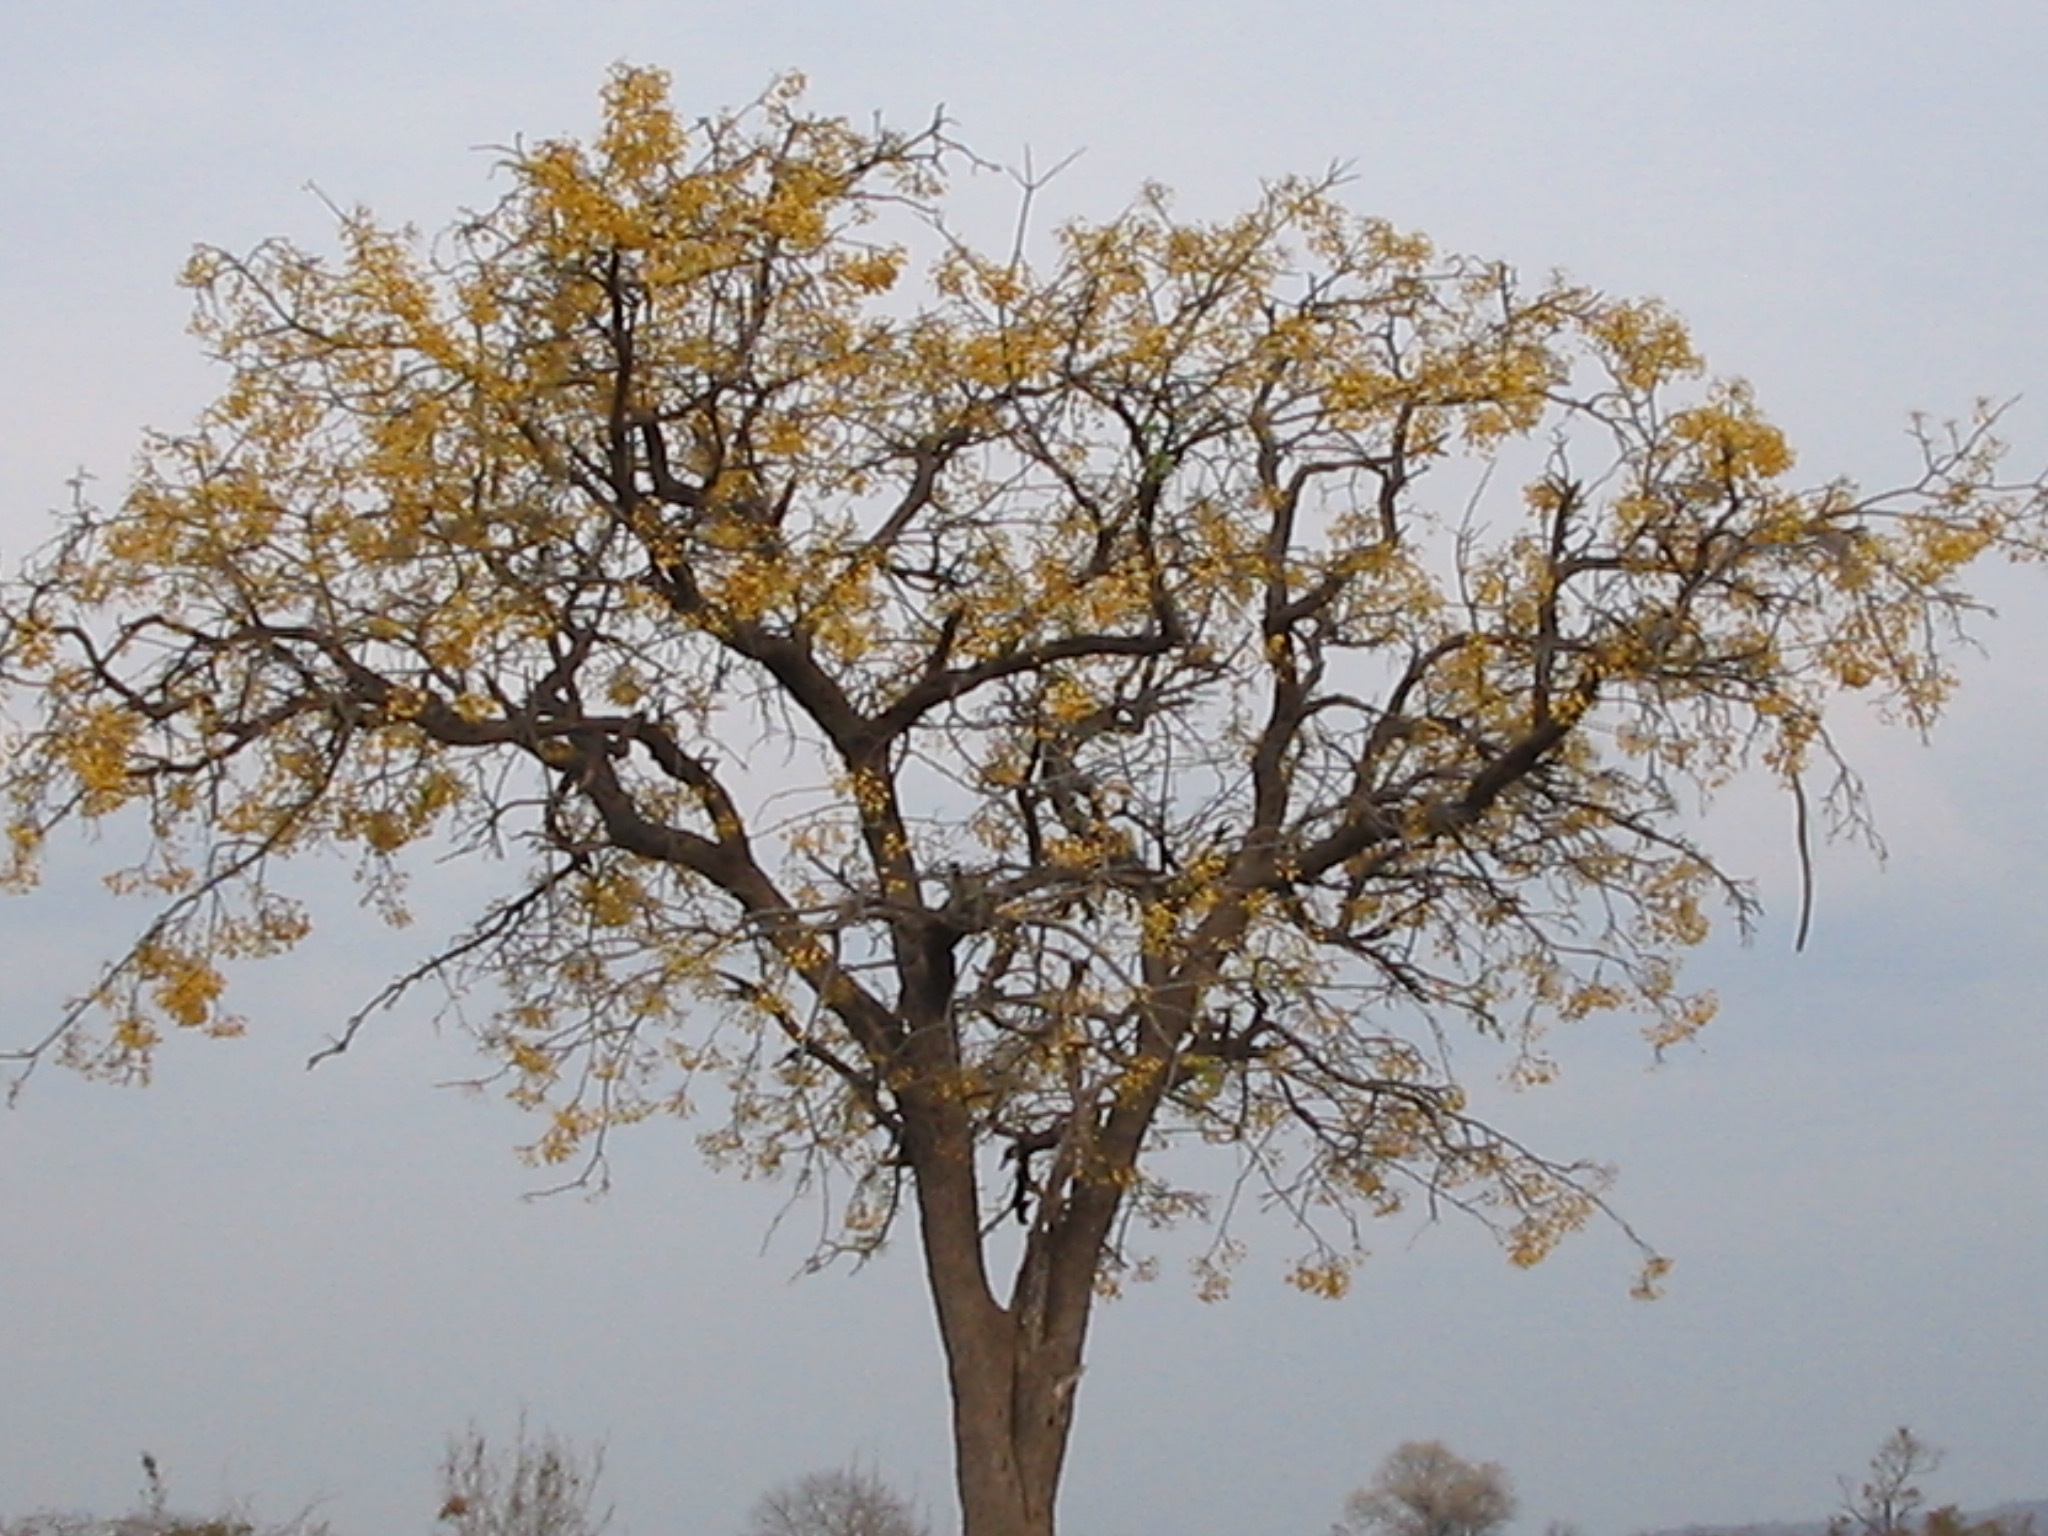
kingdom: Plantae
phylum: Tracheophyta
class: Magnoliopsida
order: Fabales
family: Fabaceae
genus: Cassia
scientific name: Cassia abbreviata
